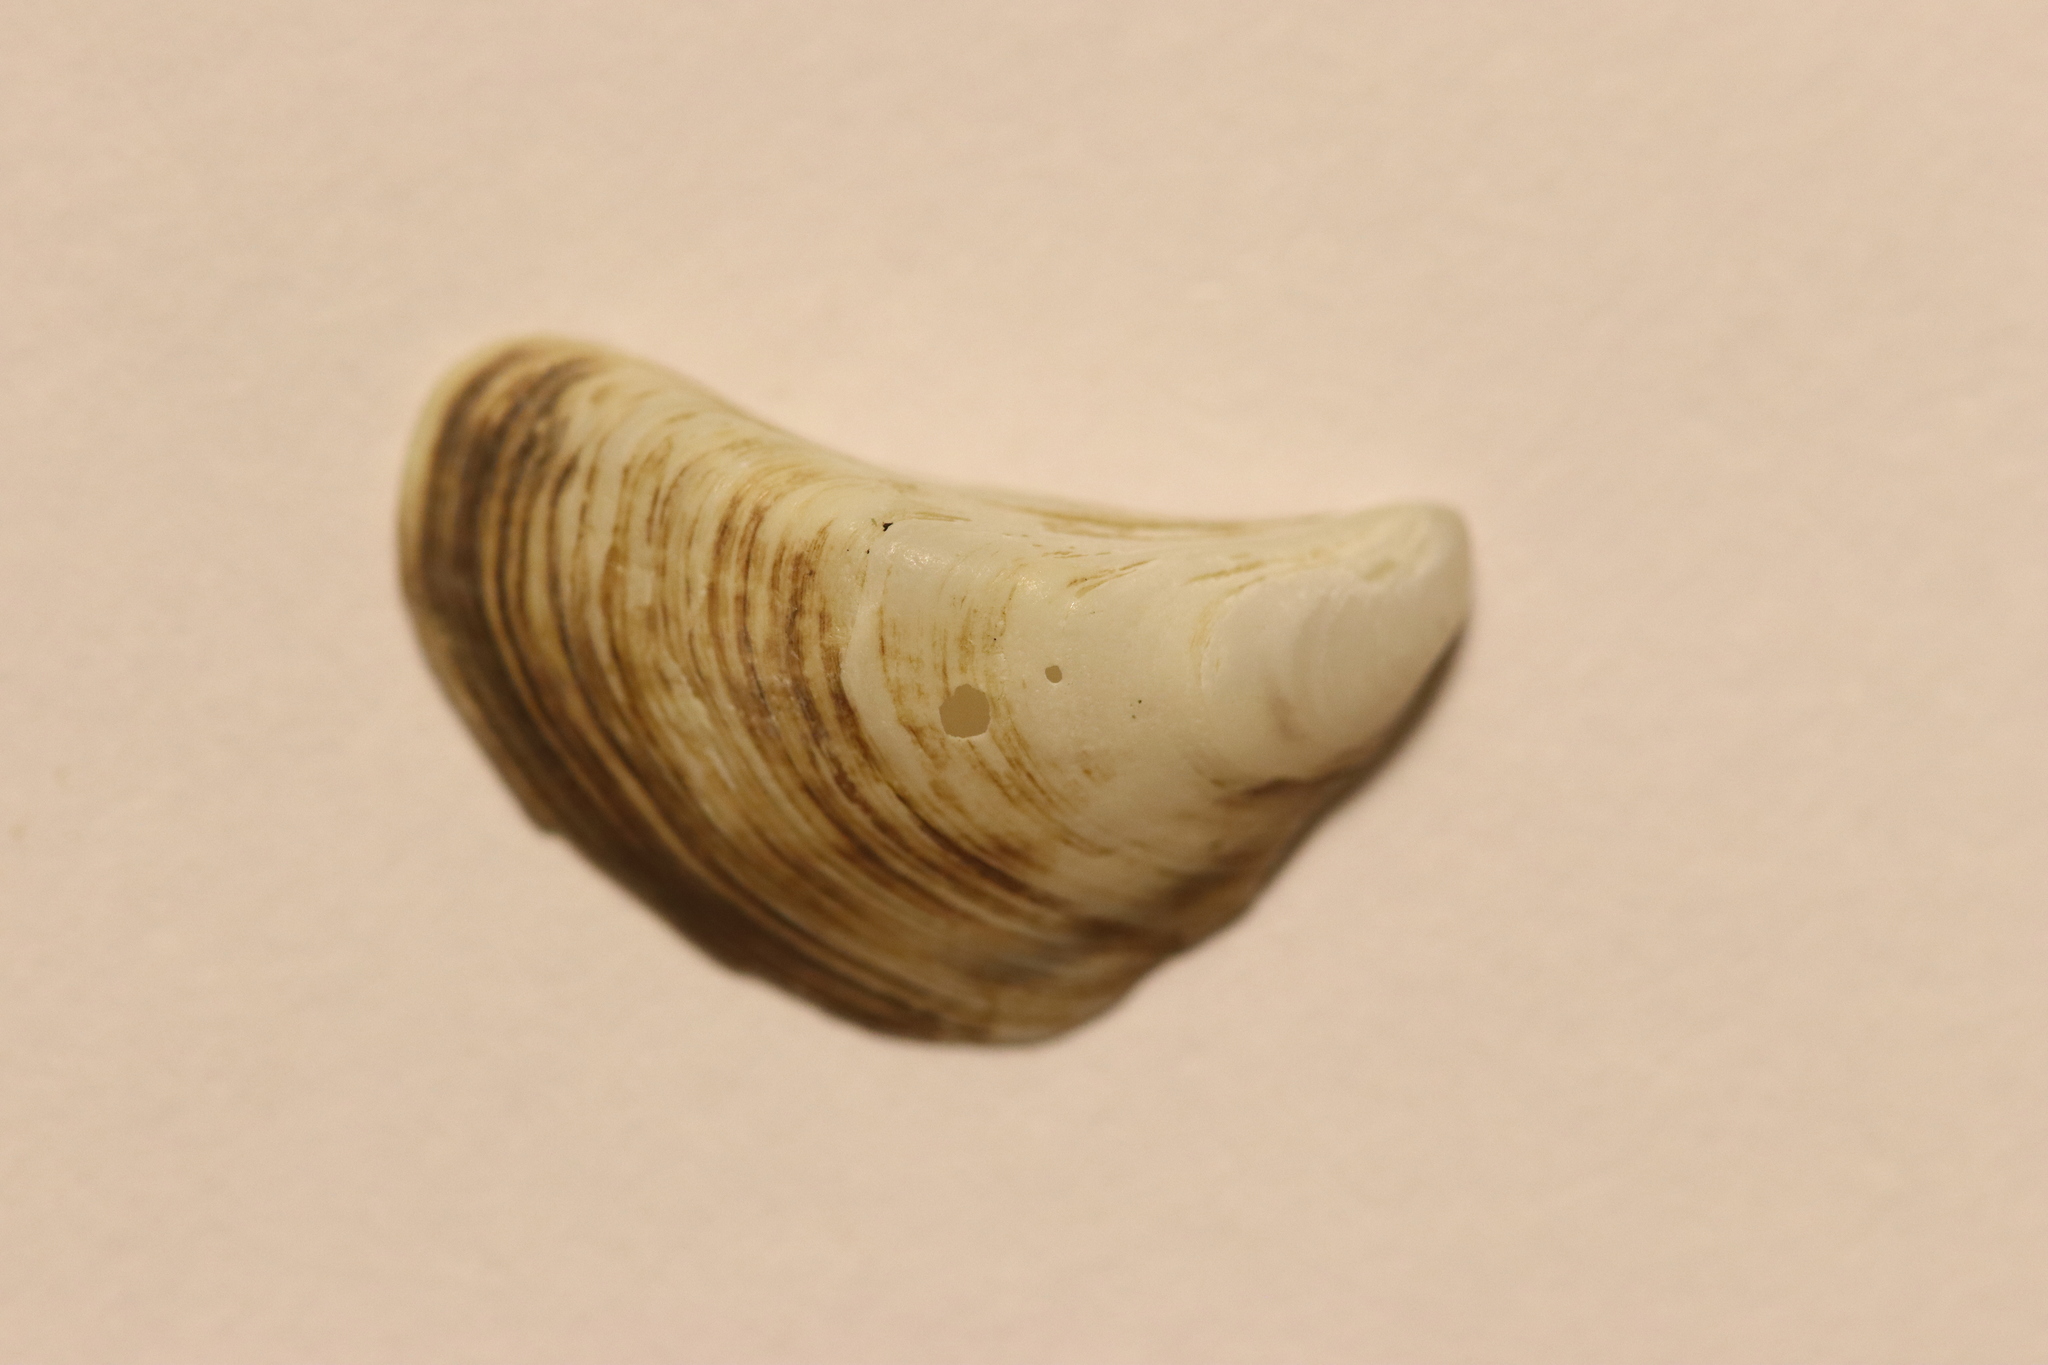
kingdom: Animalia
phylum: Mollusca
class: Bivalvia
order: Myida
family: Dreissenidae
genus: Dreissena
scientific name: Dreissena polymorpha
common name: Zebra mussel
